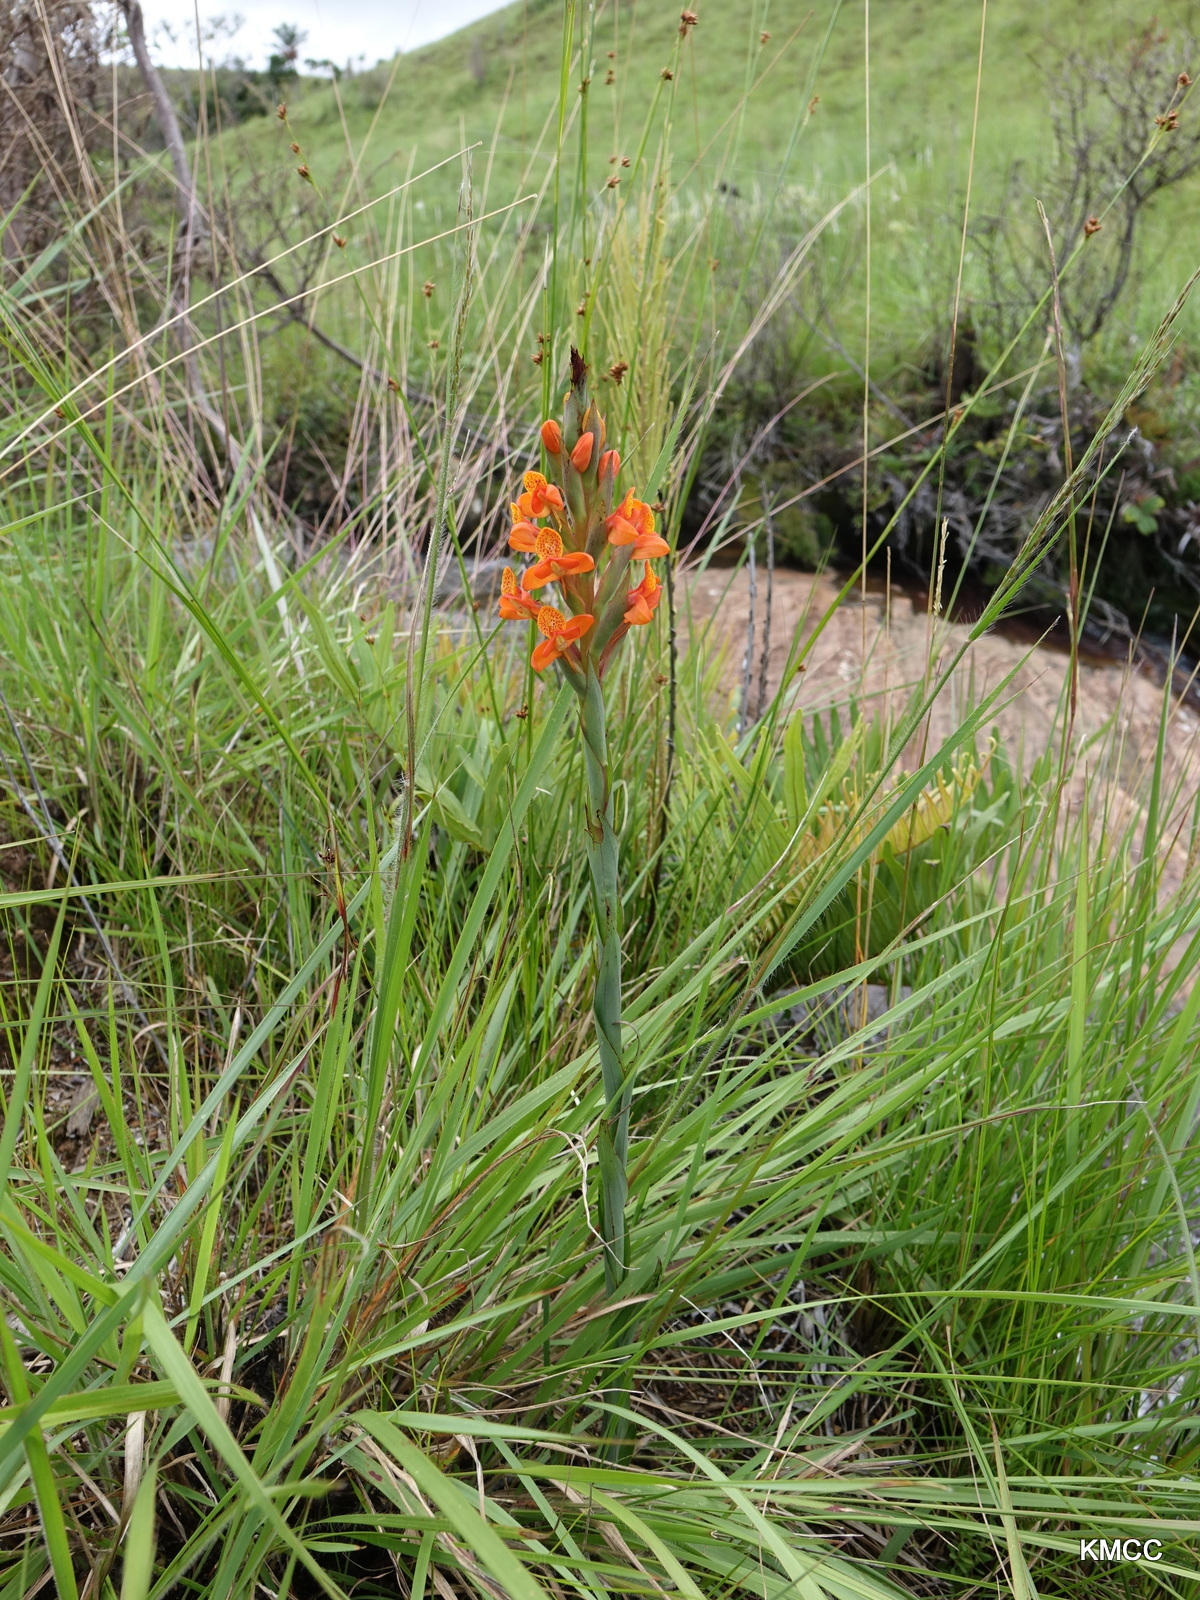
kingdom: Plantae
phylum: Tracheophyta
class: Liliopsida
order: Asparagales
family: Orchidaceae
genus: Disa
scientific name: Disa incarnata
